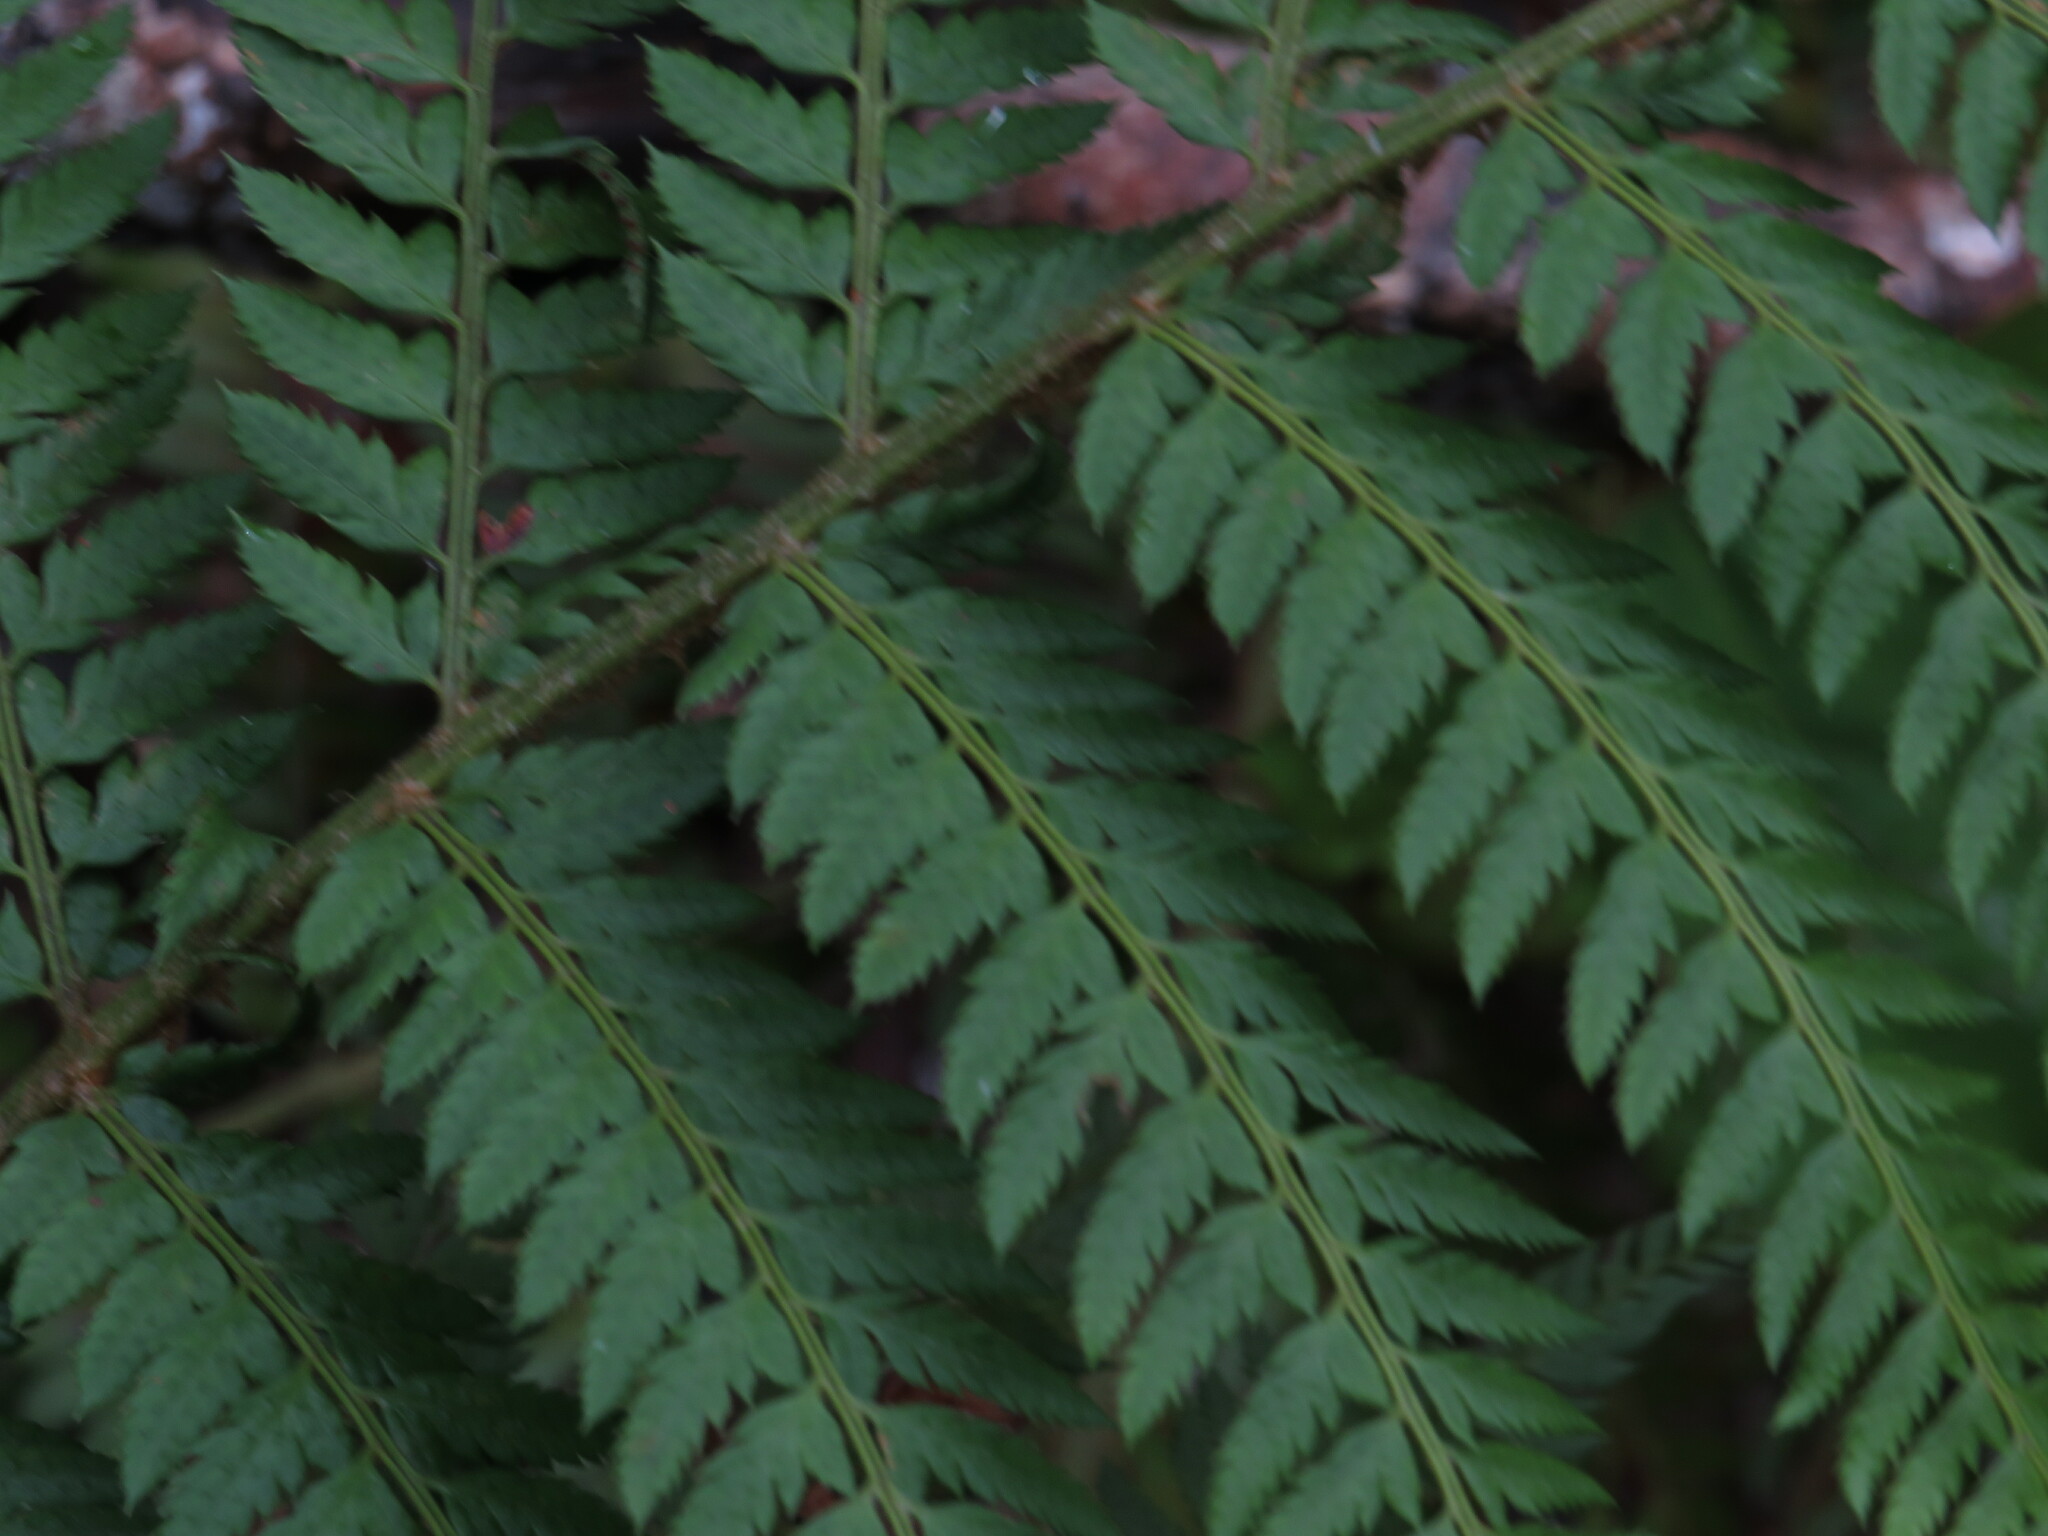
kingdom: Plantae
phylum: Tracheophyta
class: Polypodiopsida
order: Polypodiales
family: Dryopteridaceae
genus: Polystichum
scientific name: Polystichum pungens
